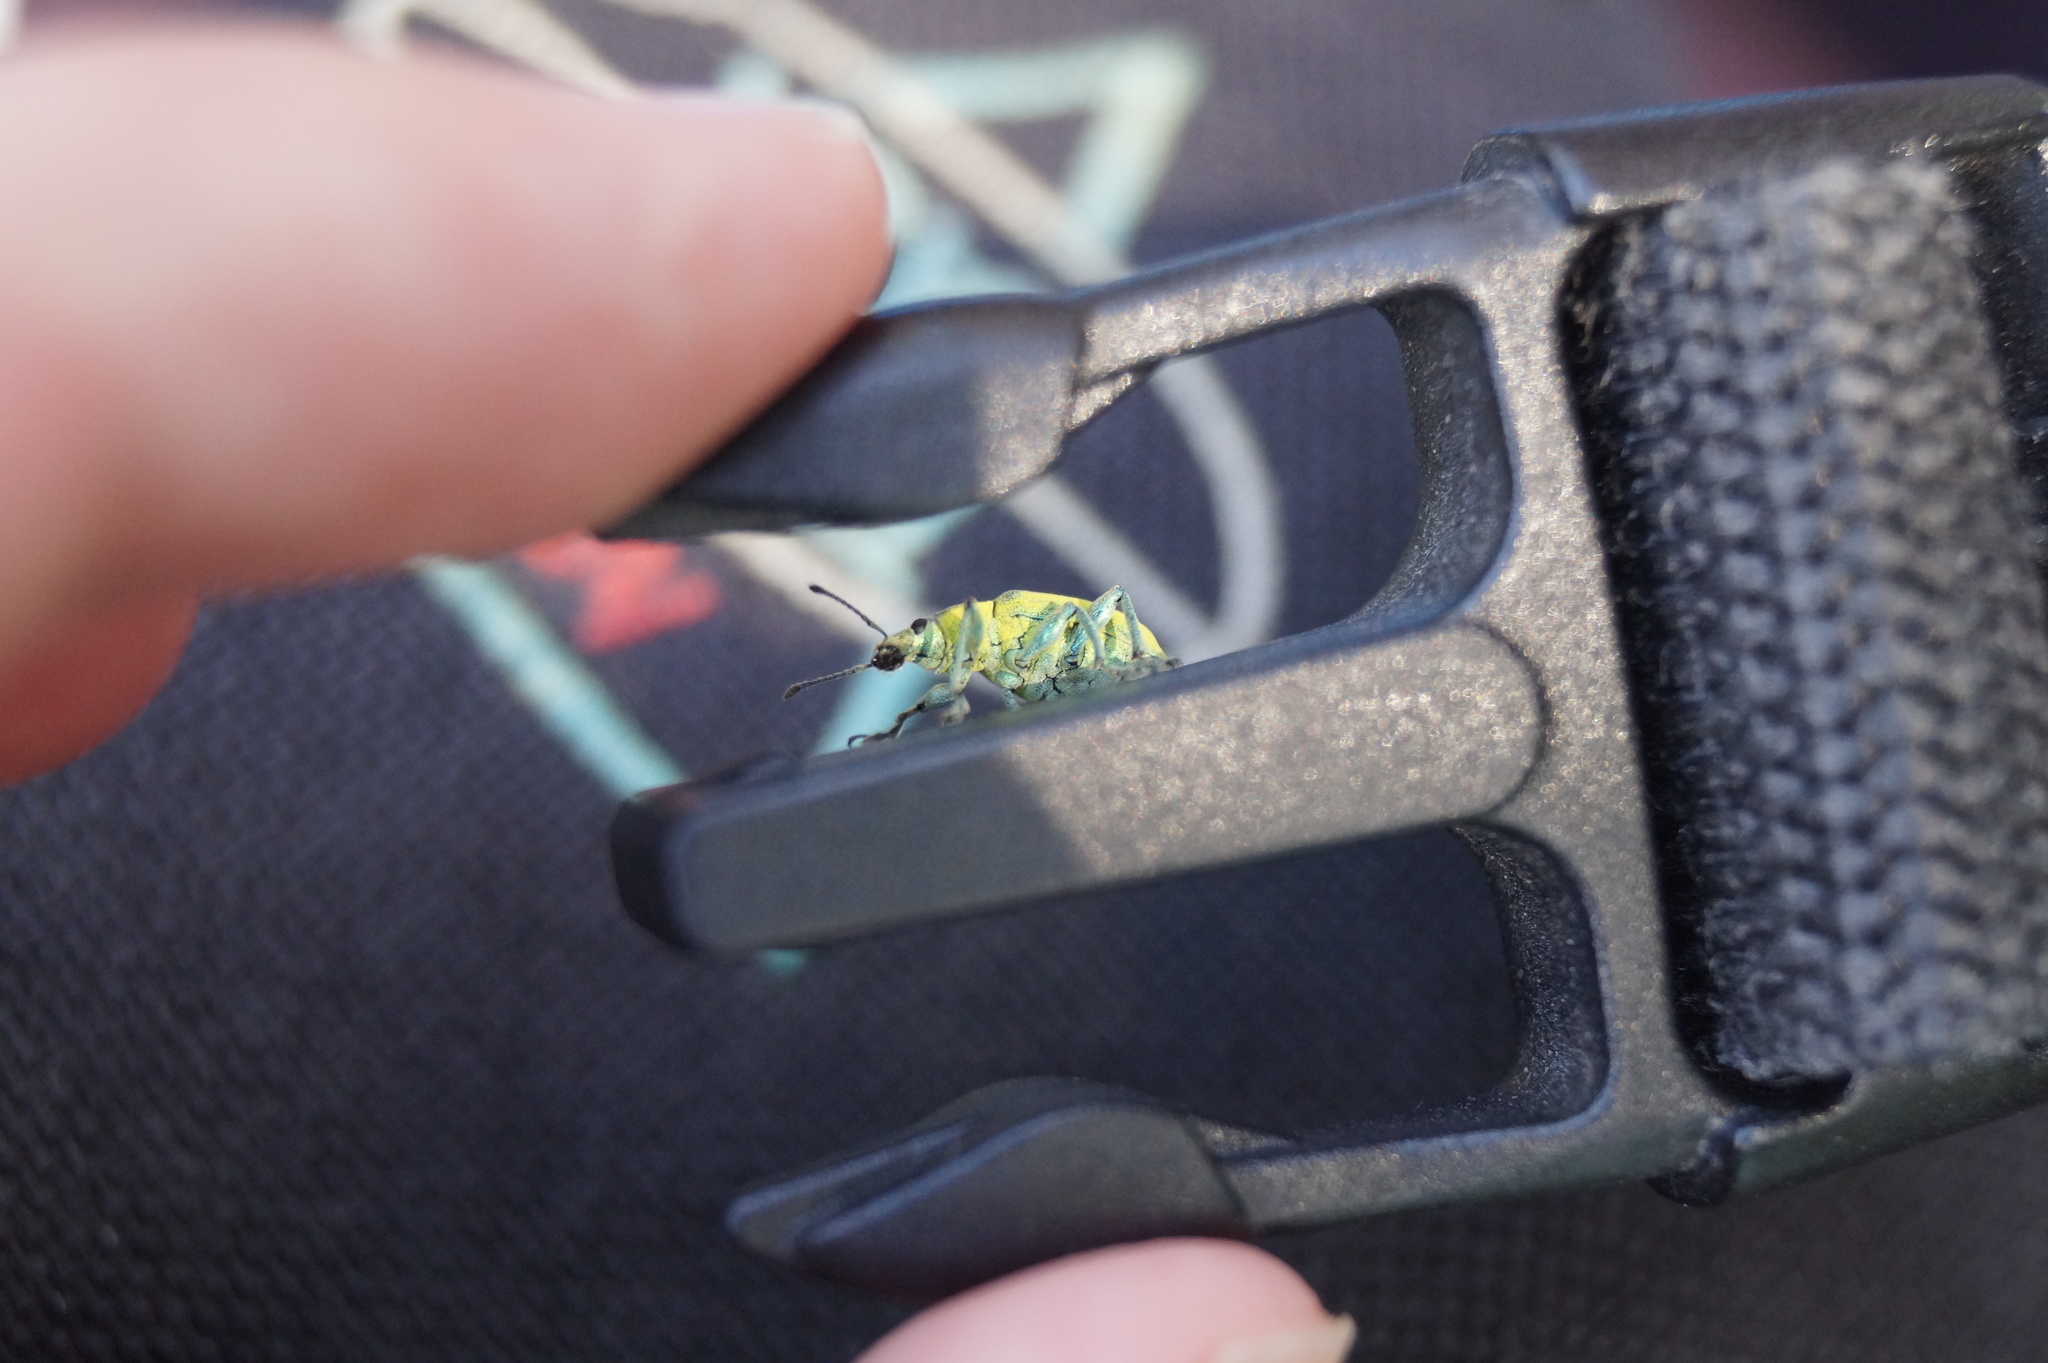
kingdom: Animalia
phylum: Arthropoda
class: Insecta
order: Coleoptera
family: Curculionidae
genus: Chlorophanus
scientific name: Chlorophanus viridis
